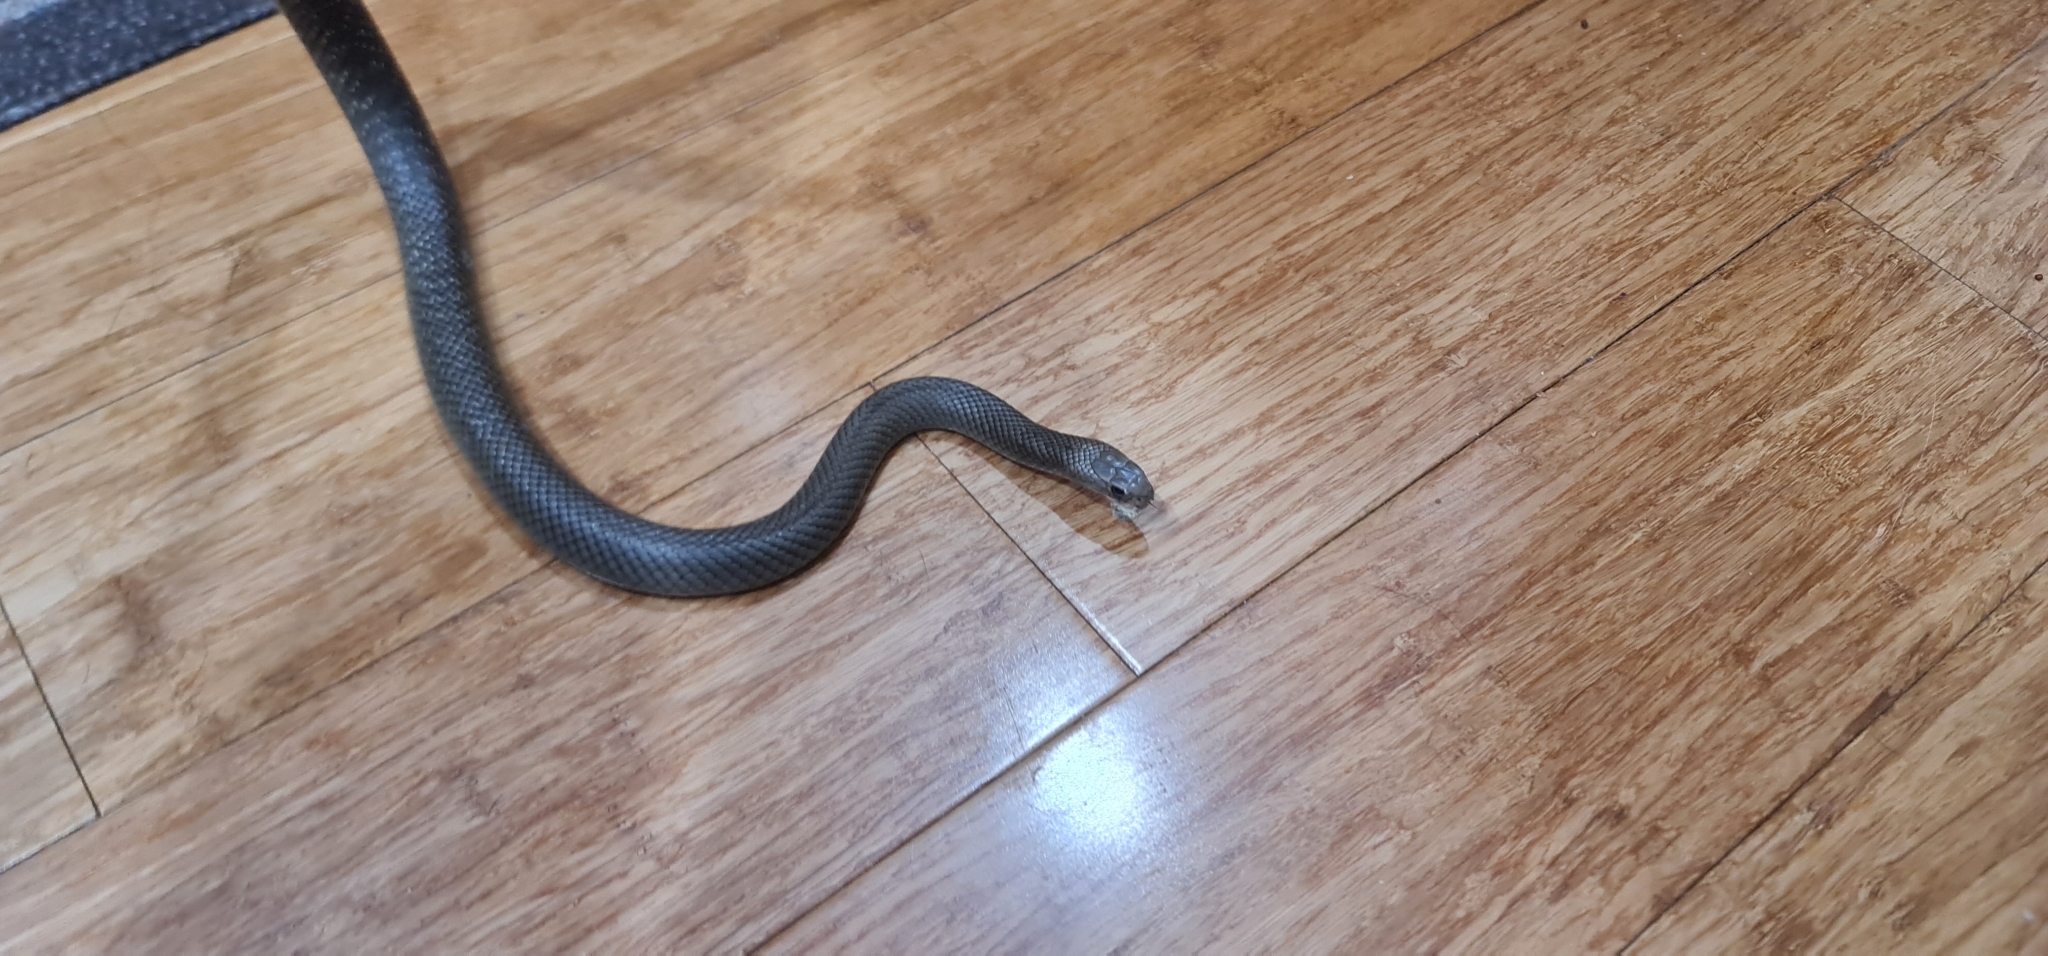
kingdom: Animalia
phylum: Chordata
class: Squamata
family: Elapidae
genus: Pseudonaja
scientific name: Pseudonaja textilis
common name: Eastern brown snake
